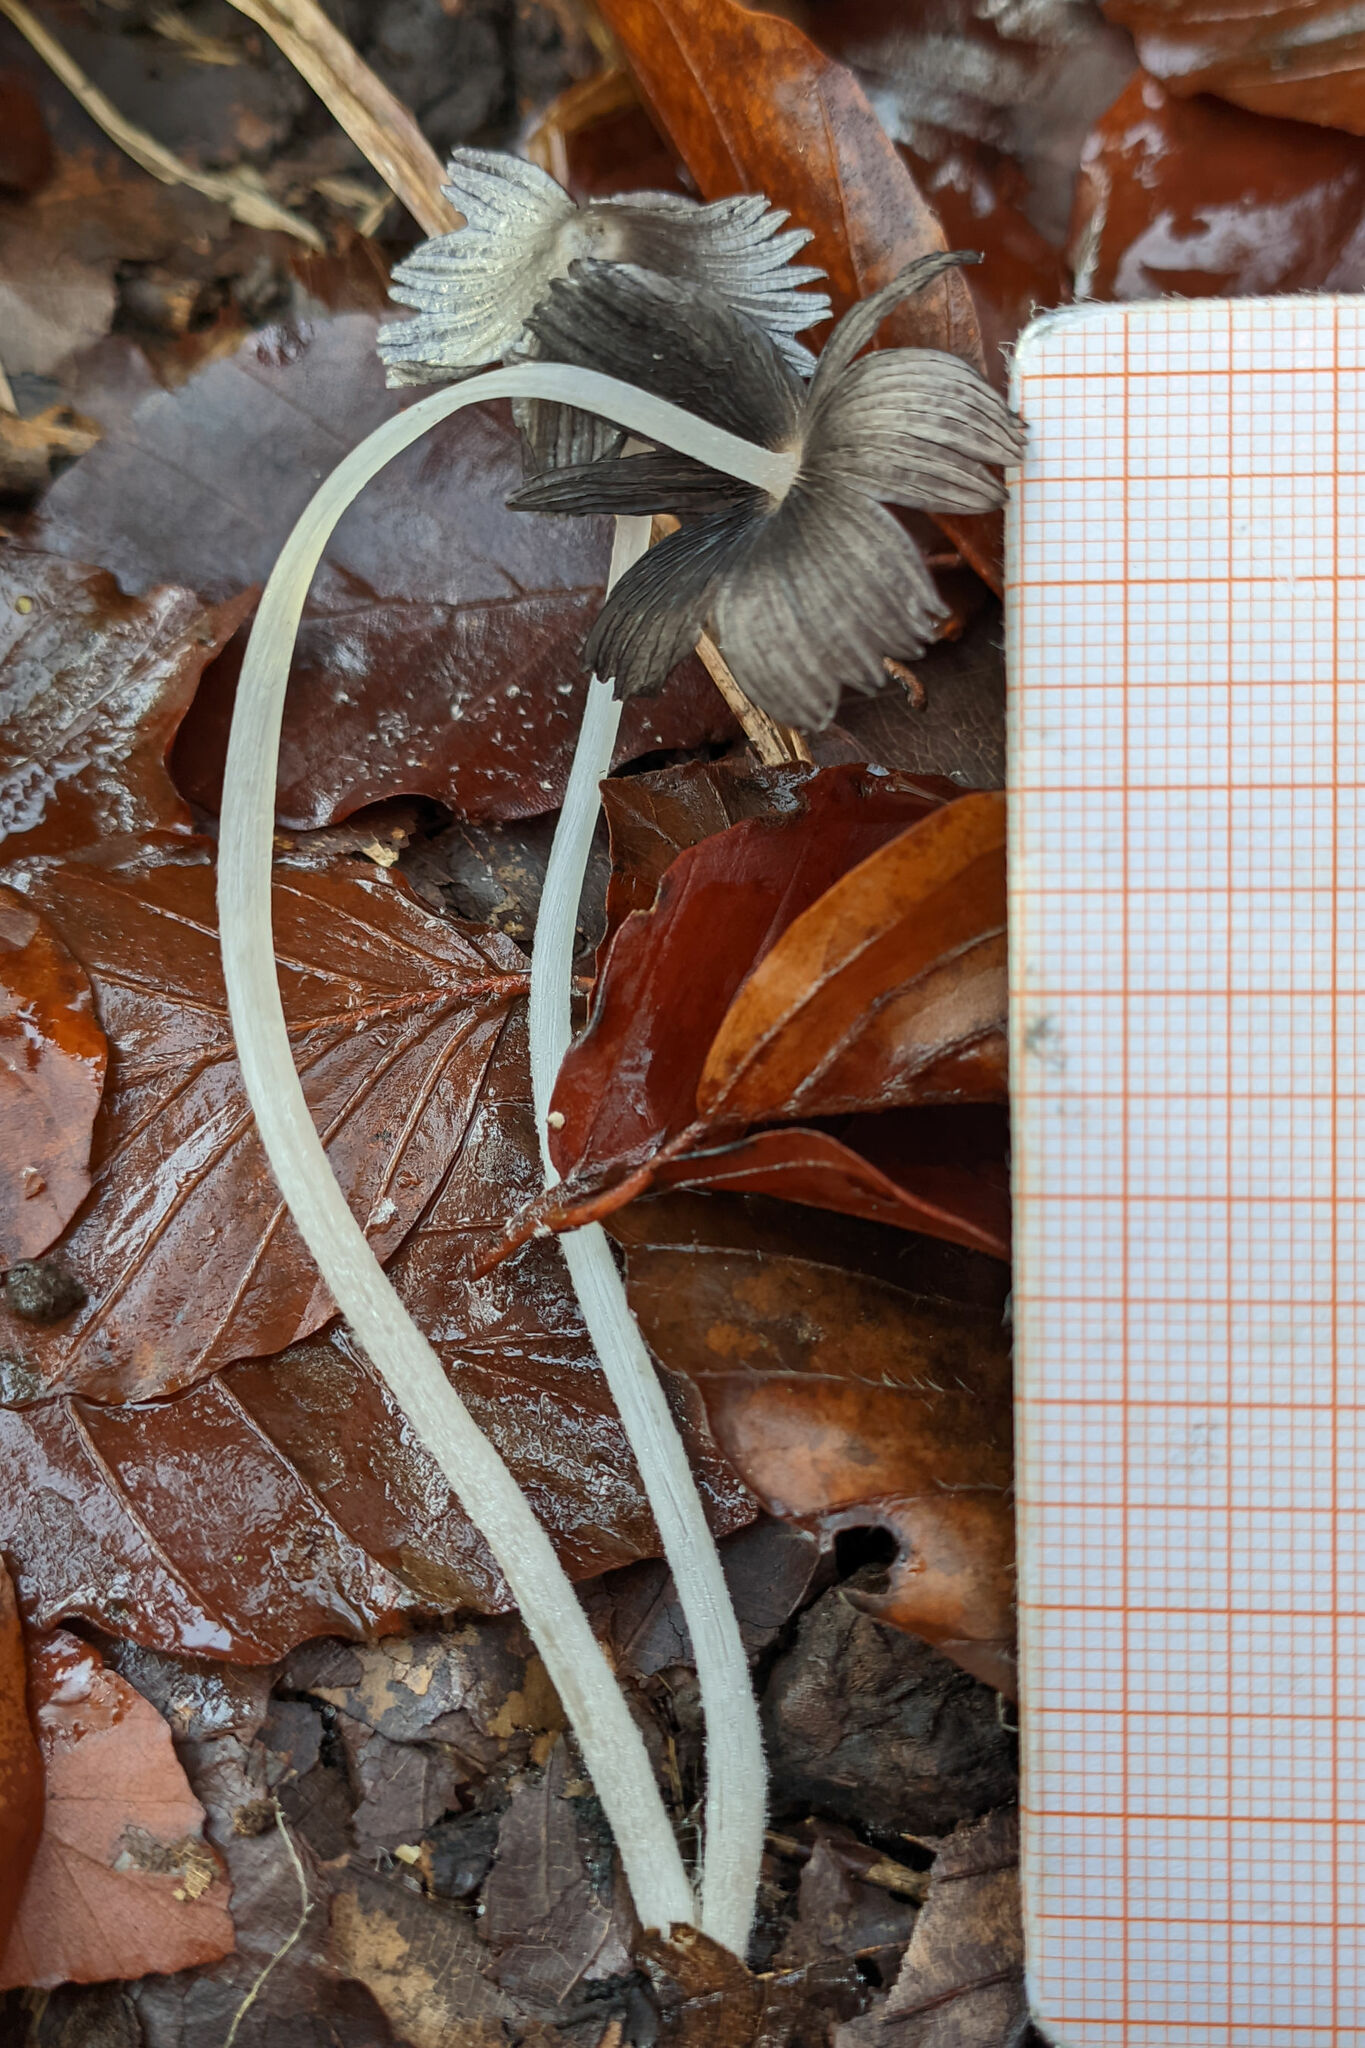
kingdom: Fungi
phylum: Basidiomycota
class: Agaricomycetes
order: Agaricales
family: Psathyrellaceae
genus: Coprinopsis
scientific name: Coprinopsis lagopus
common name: Hare'sfoot inkcap
